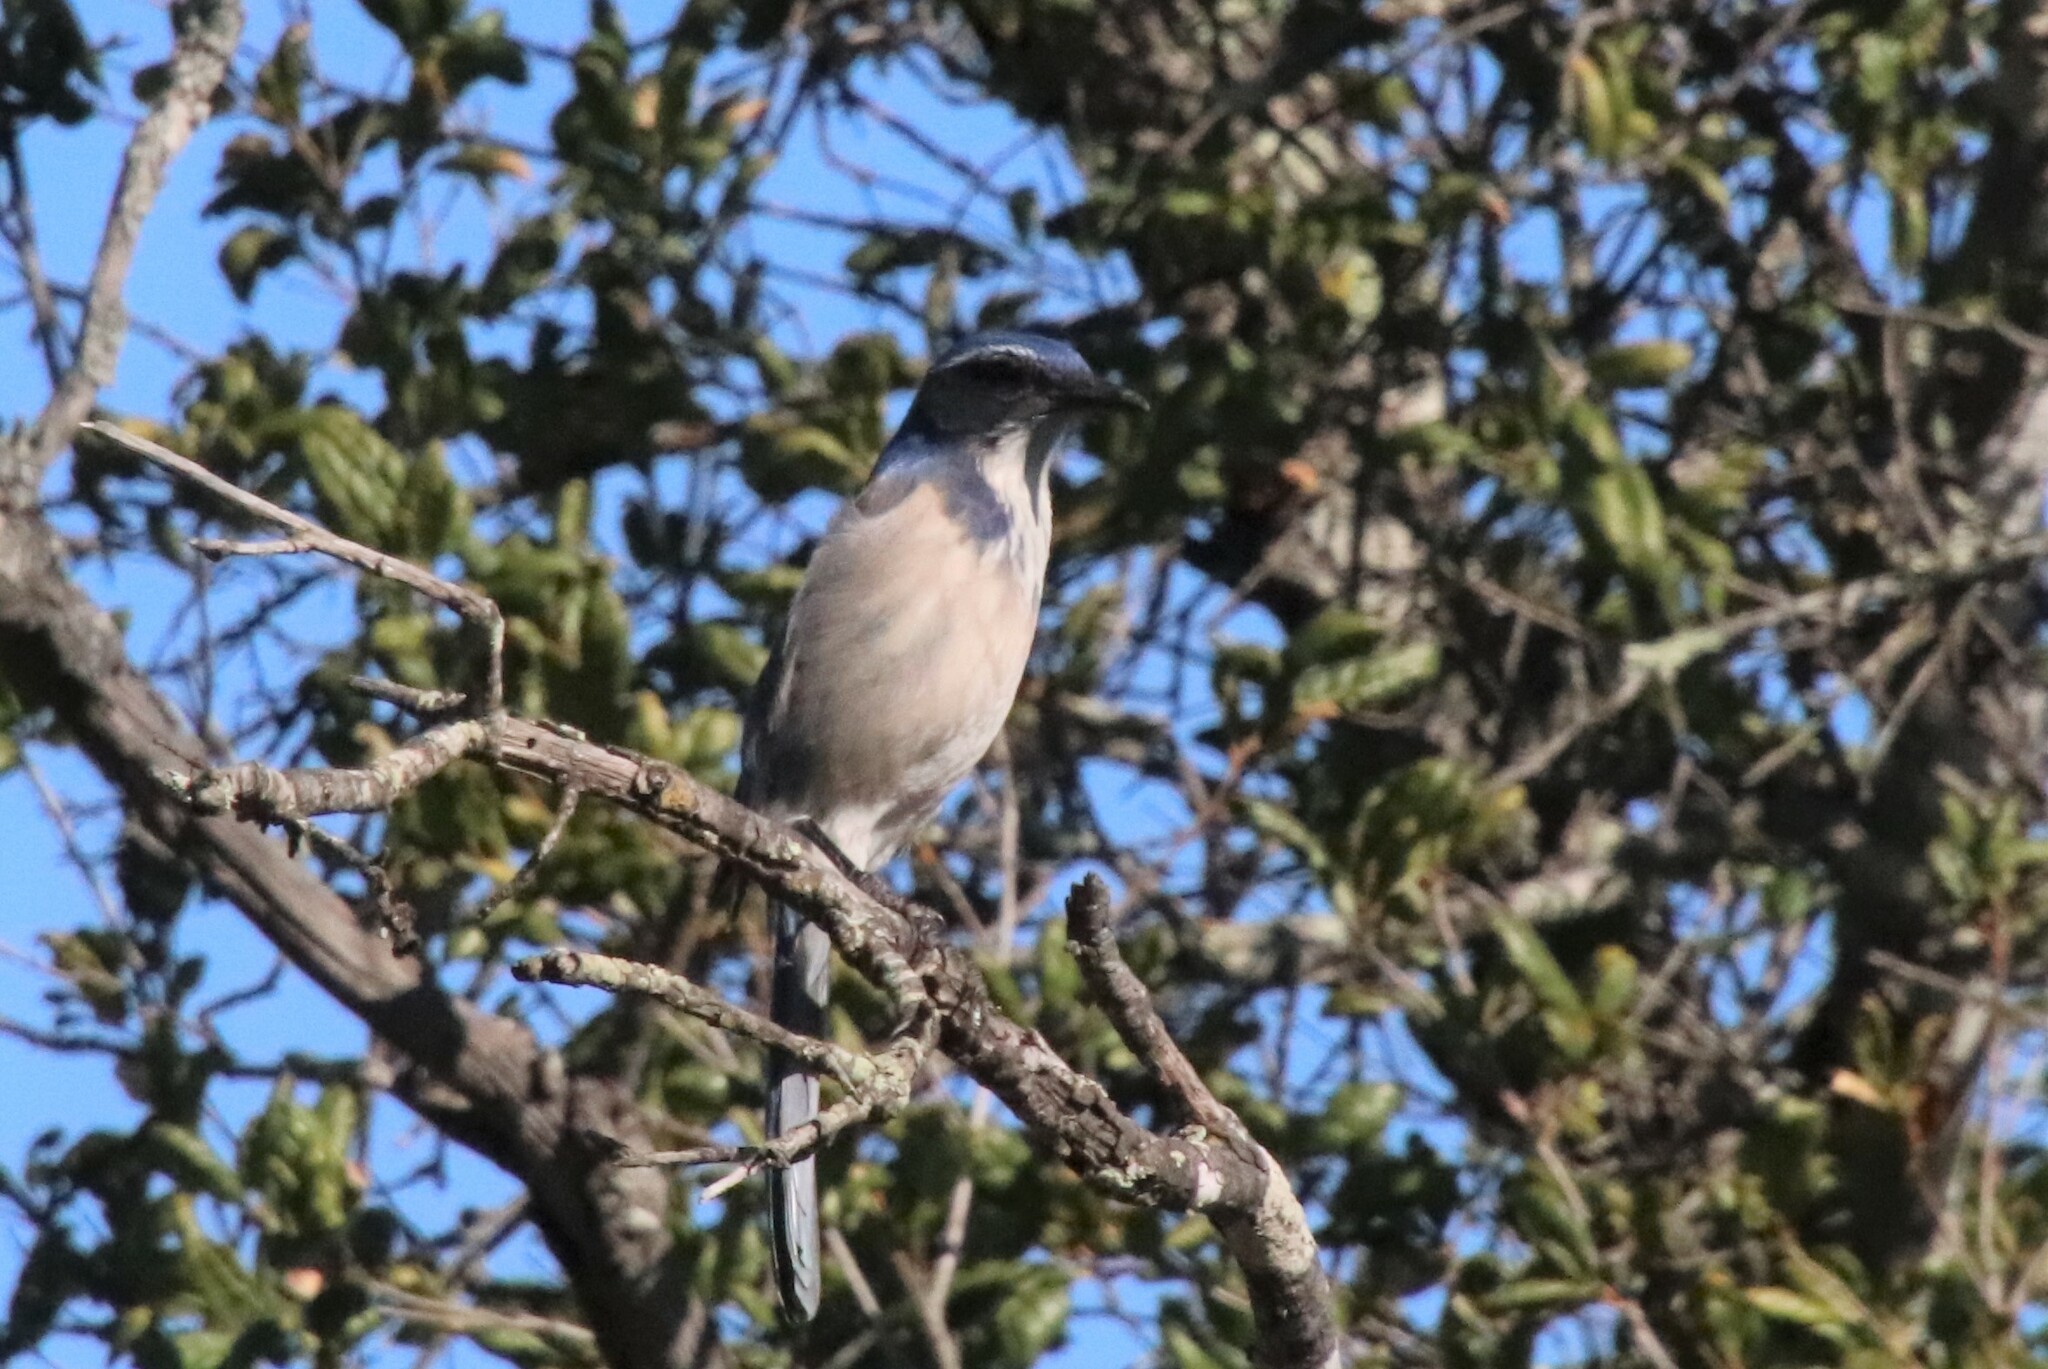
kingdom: Animalia
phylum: Chordata
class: Aves
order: Passeriformes
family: Corvidae
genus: Aphelocoma
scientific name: Aphelocoma californica
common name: California scrub-jay
